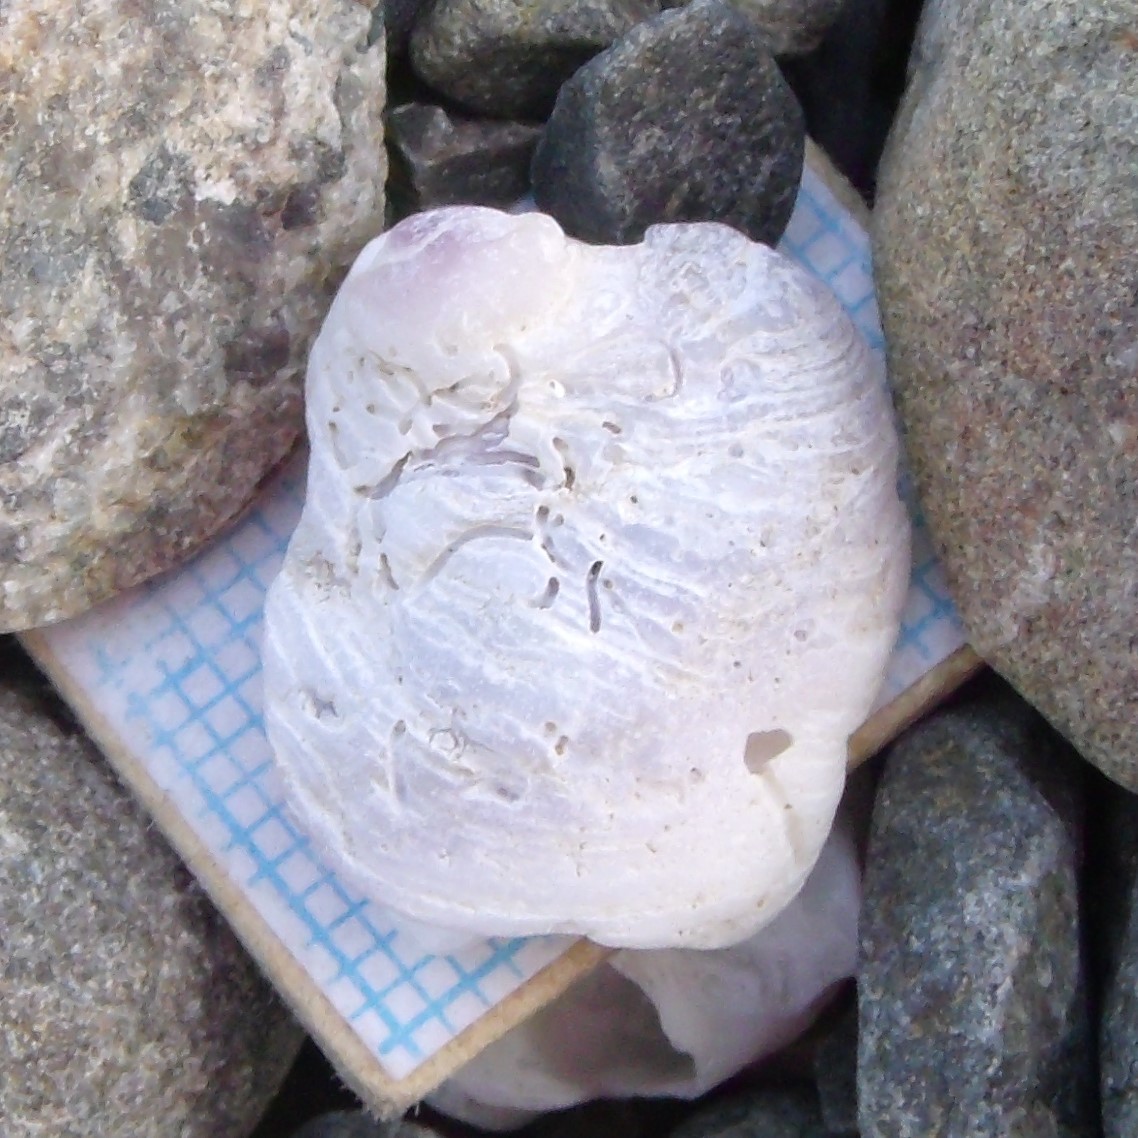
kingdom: Animalia
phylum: Mollusca
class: Gastropoda
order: Littorinimorpha
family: Calyptraeidae
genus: Sigapatella
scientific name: Sigapatella novaezelandiae
